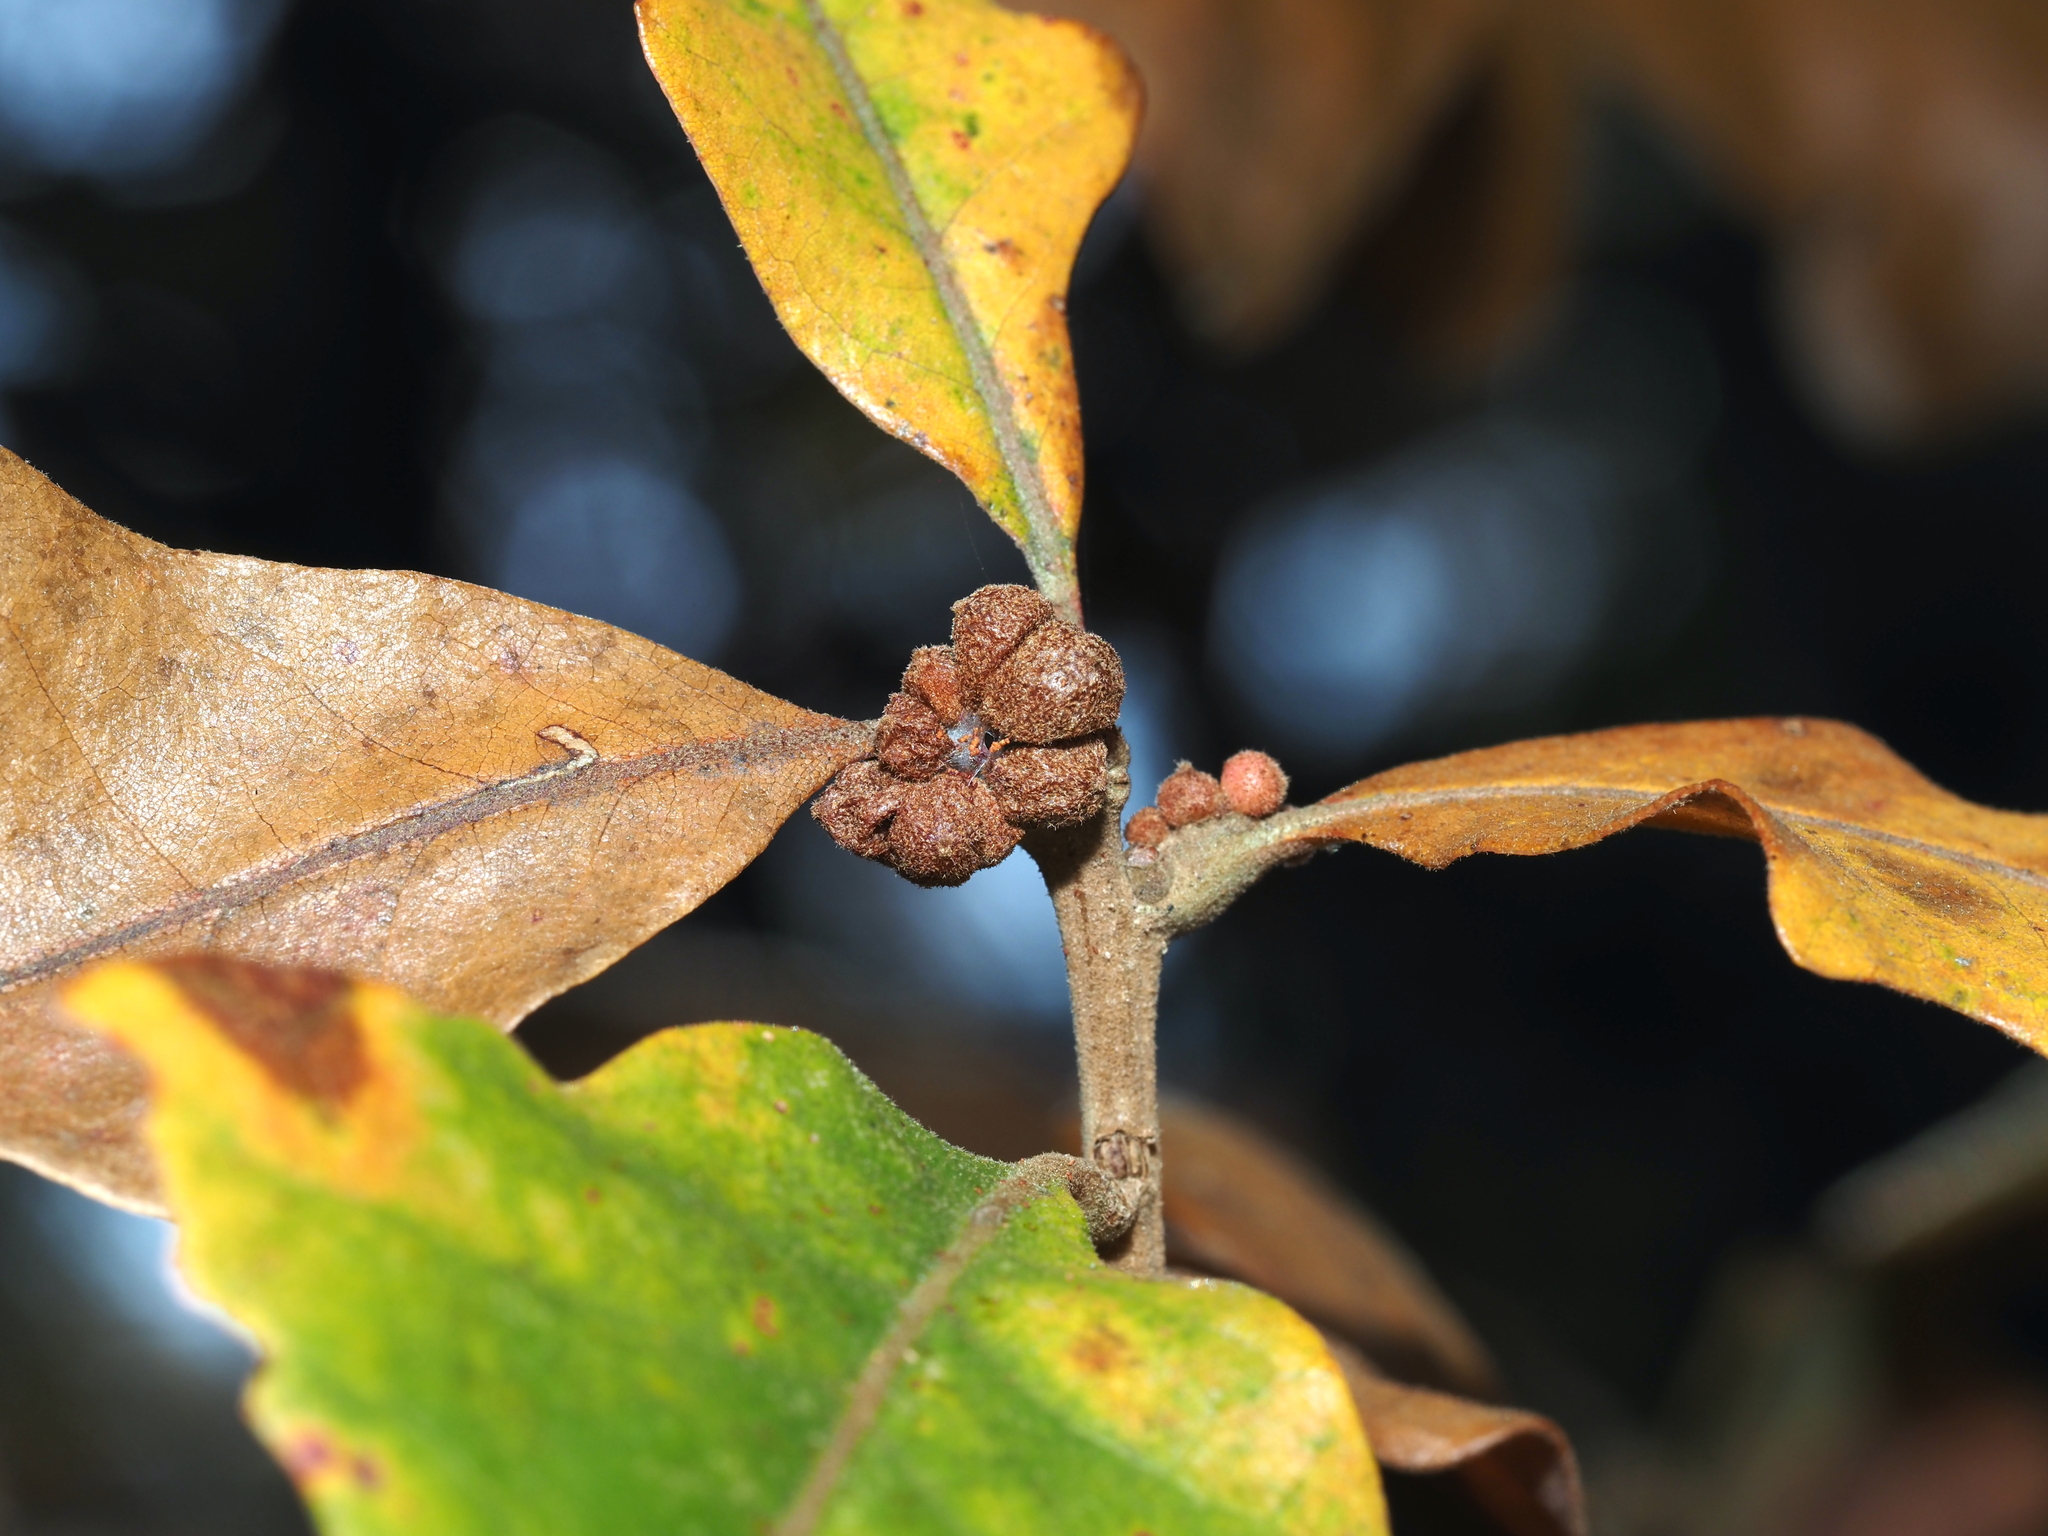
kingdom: Animalia
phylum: Arthropoda
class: Insecta
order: Hymenoptera
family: Cynipidae
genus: Andricus
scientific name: Andricus
